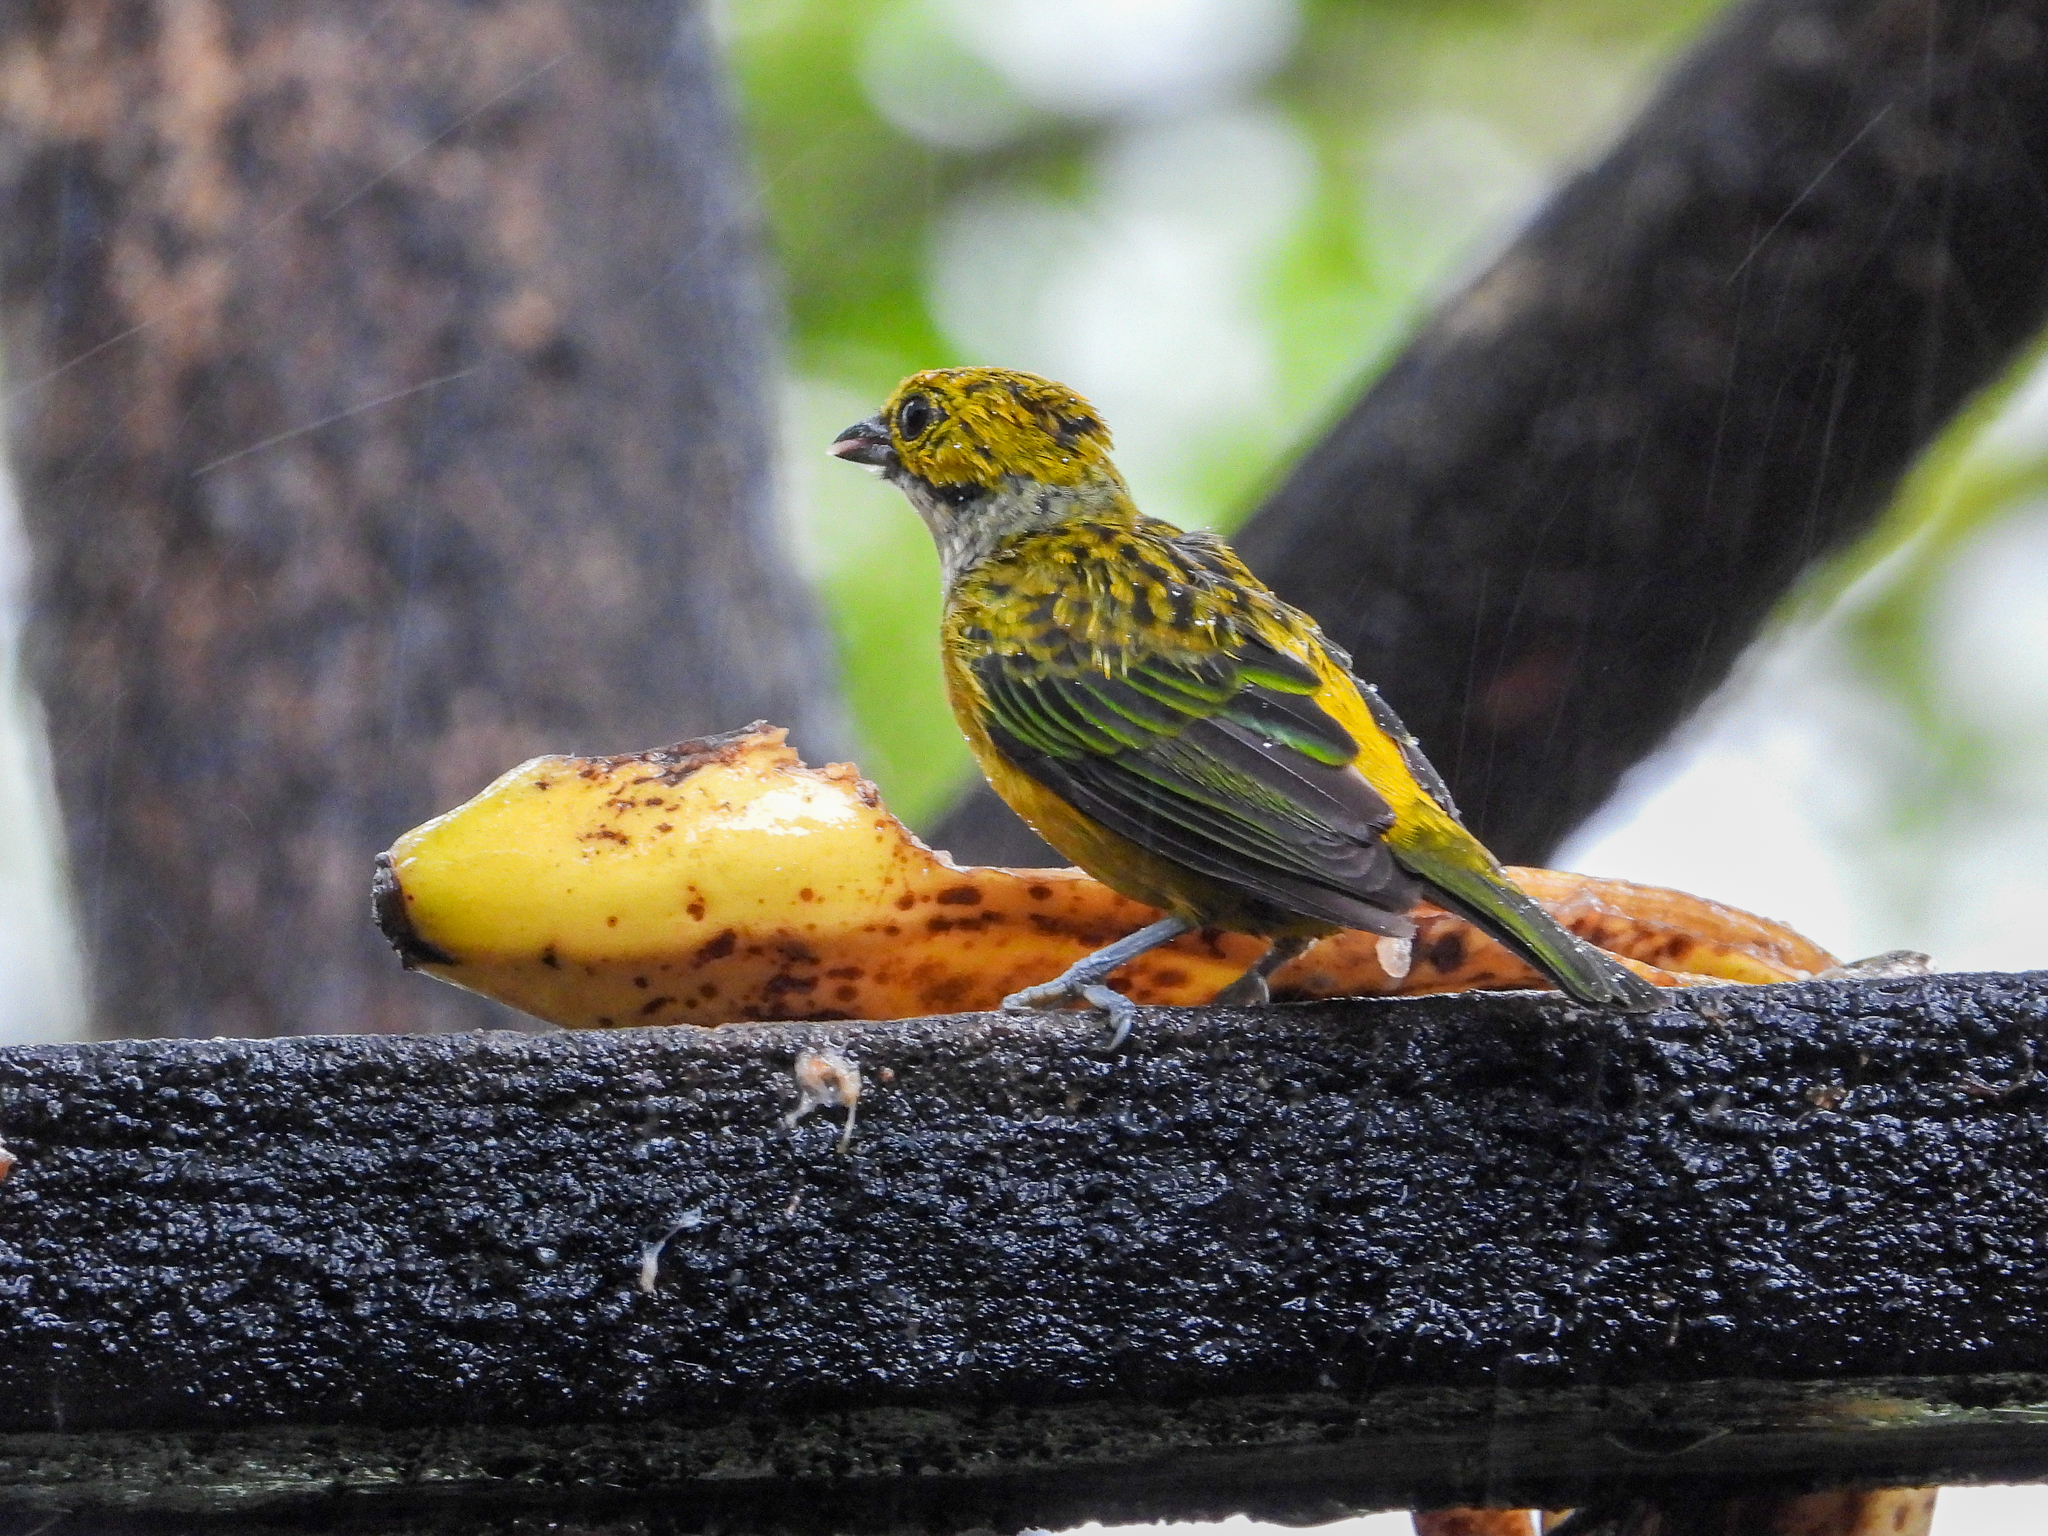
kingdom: Animalia
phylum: Chordata
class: Aves
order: Passeriformes
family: Thraupidae
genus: Tangara
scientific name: Tangara icterocephala
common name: Silver-throated tanager
